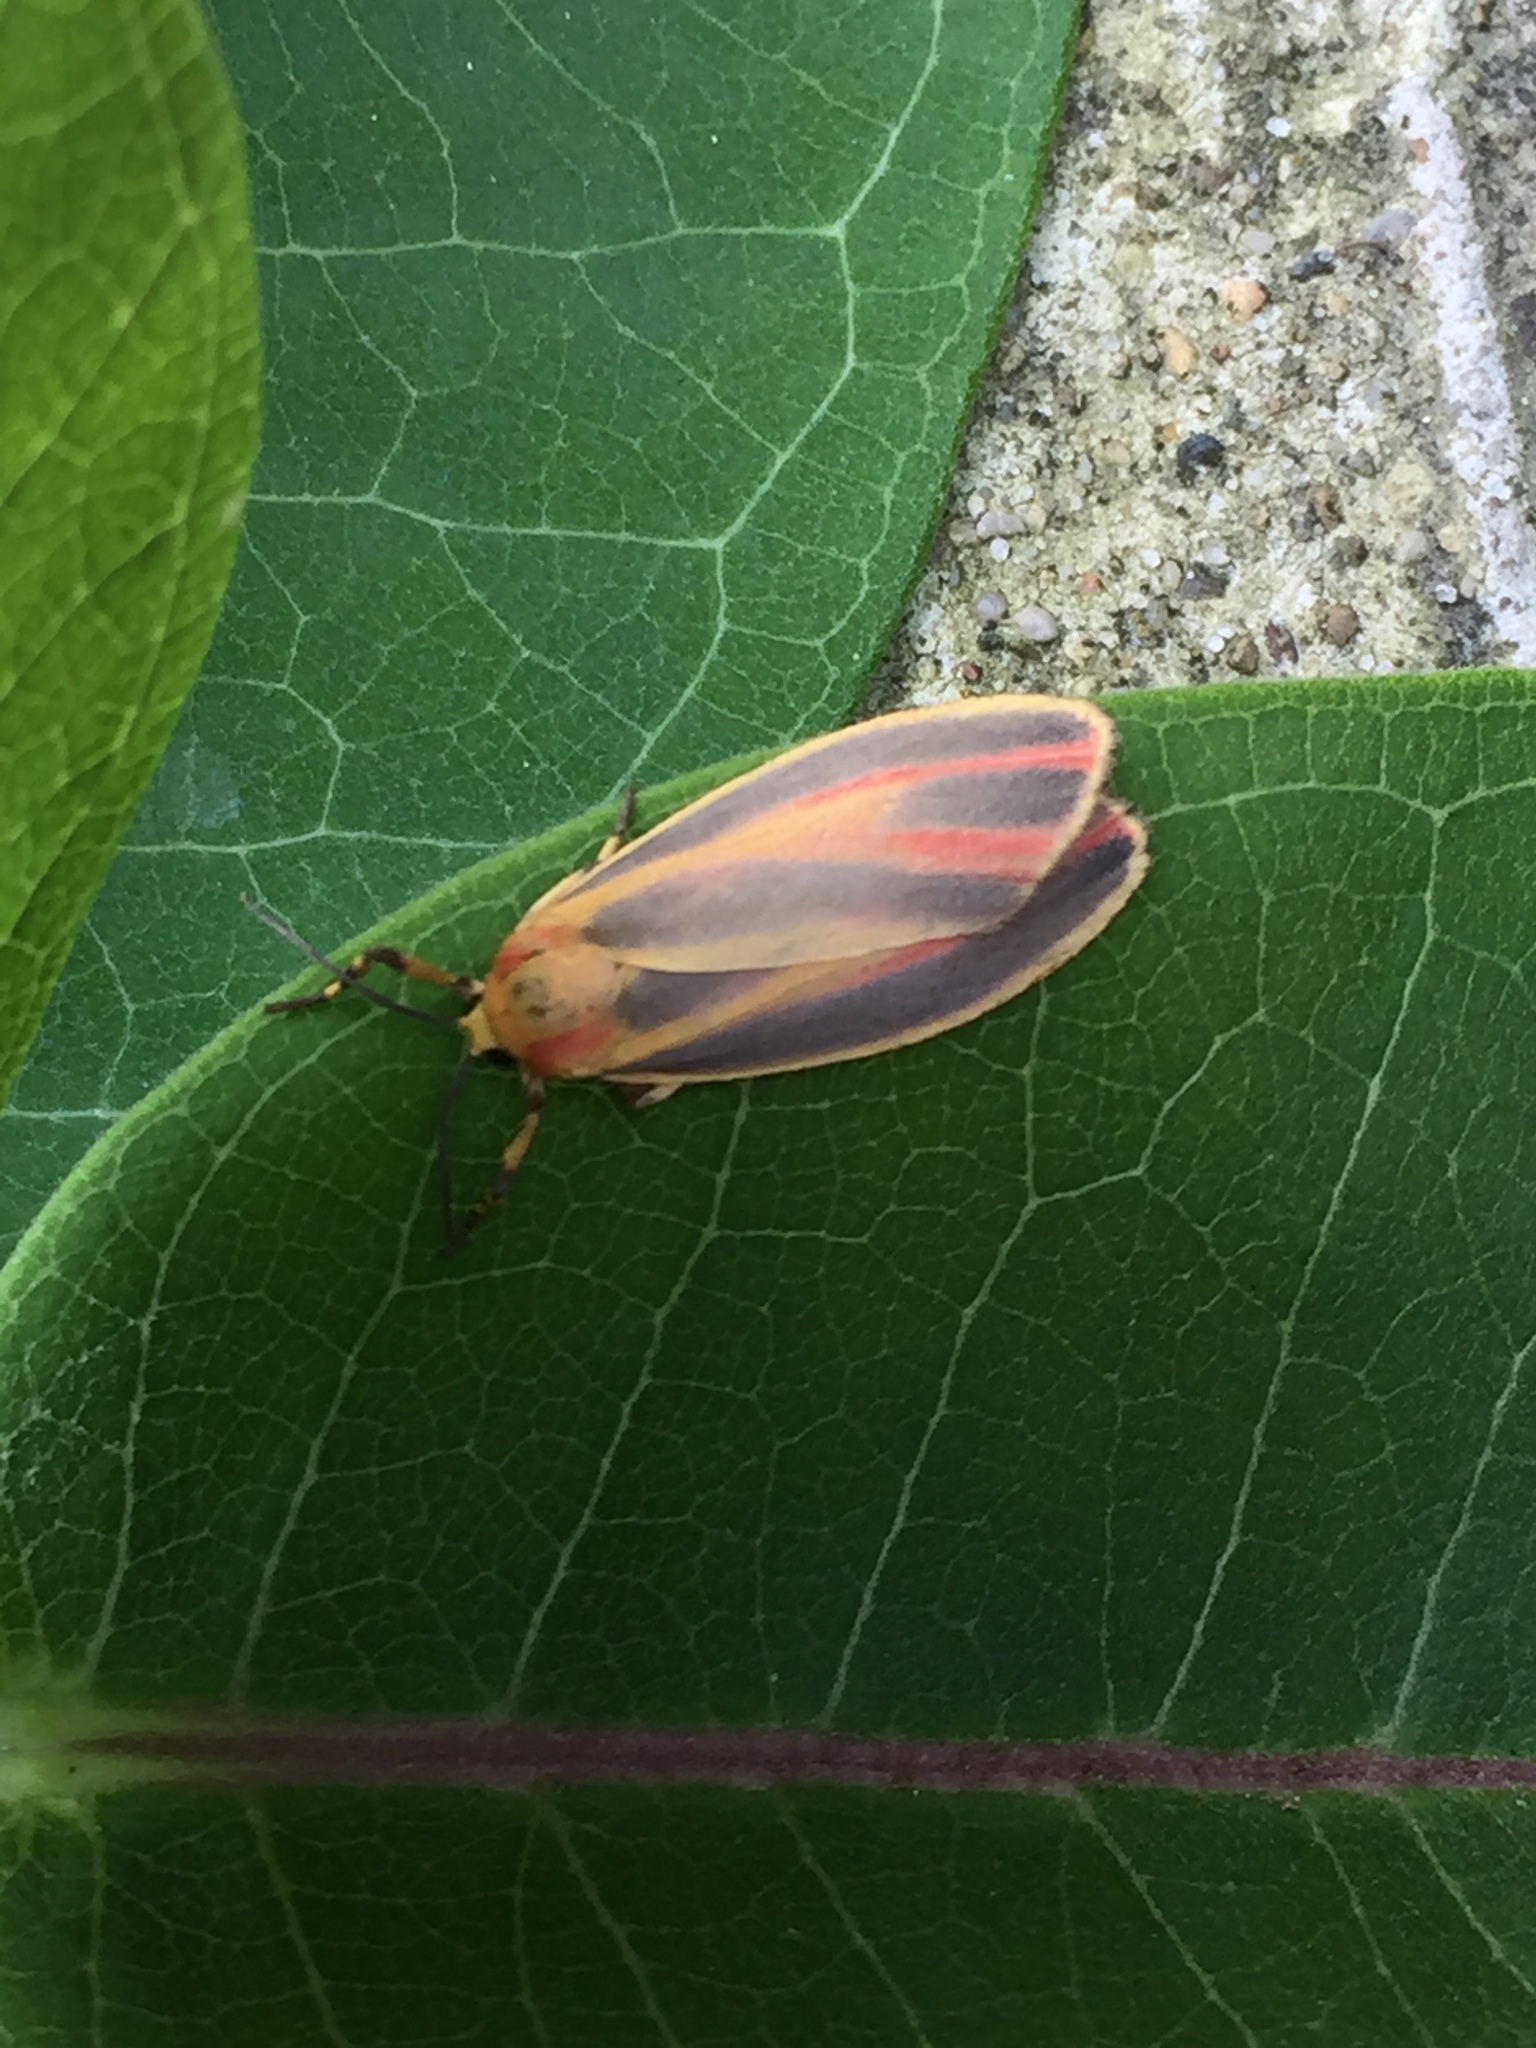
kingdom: Animalia
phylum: Arthropoda
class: Insecta
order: Lepidoptera
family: Erebidae
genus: Hypoprepia
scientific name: Hypoprepia fucosa
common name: Painted lichen moth
